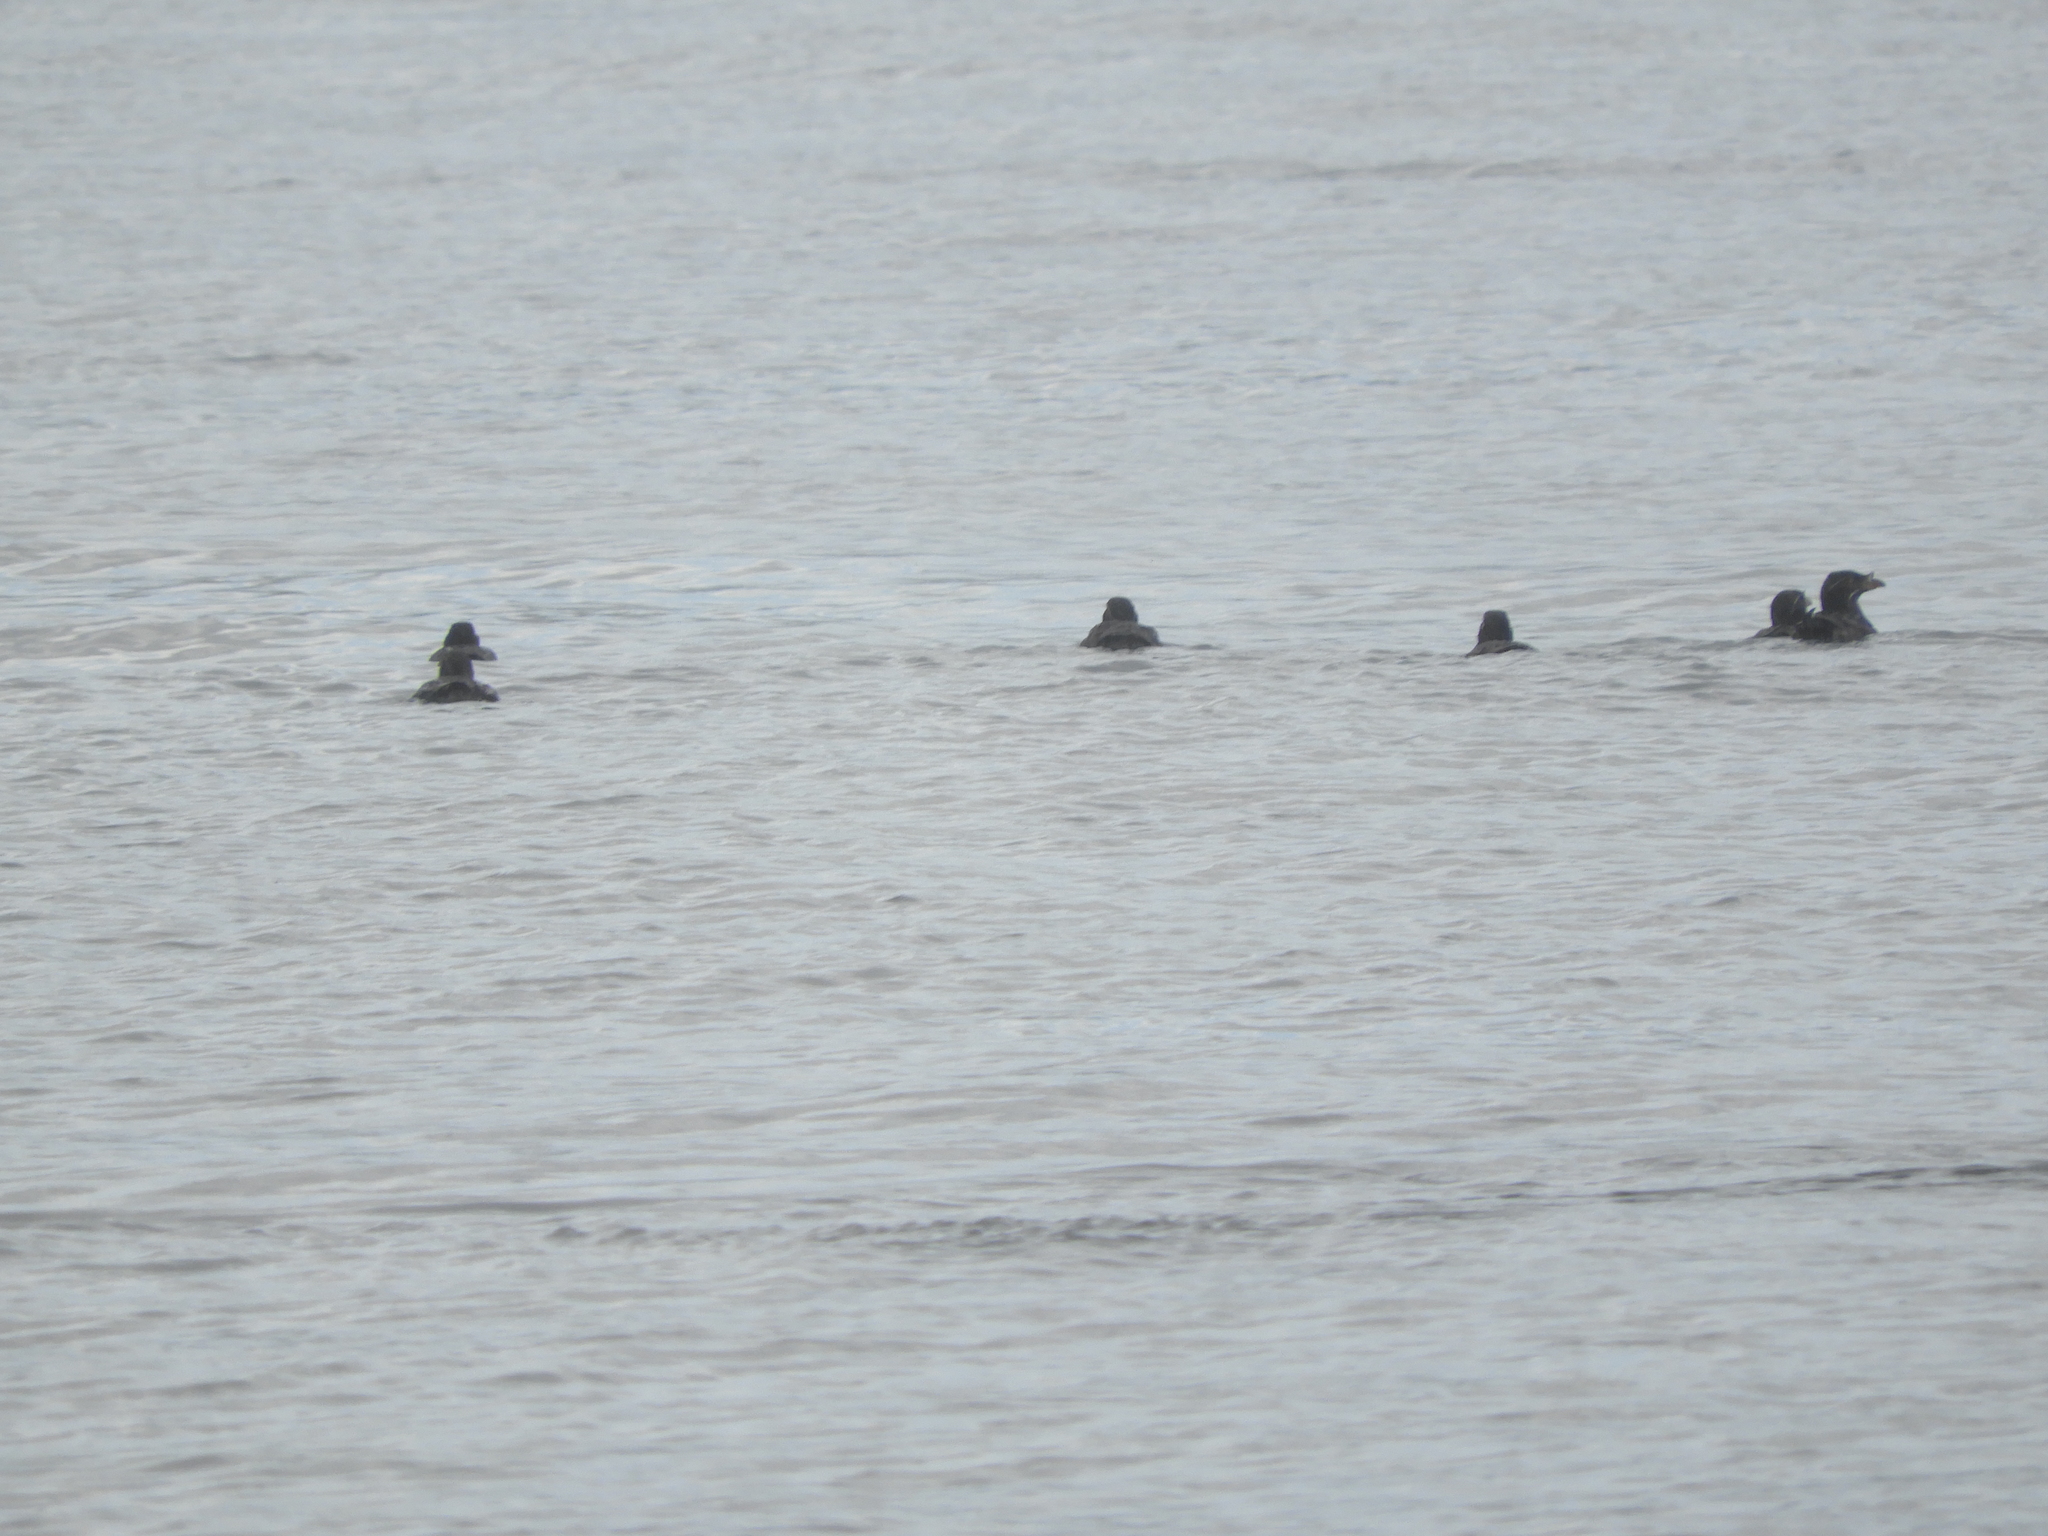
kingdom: Animalia
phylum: Chordata
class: Aves
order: Charadriiformes
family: Alcidae
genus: Cerorhinca
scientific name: Cerorhinca monocerata
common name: Rhinoceros auklet
